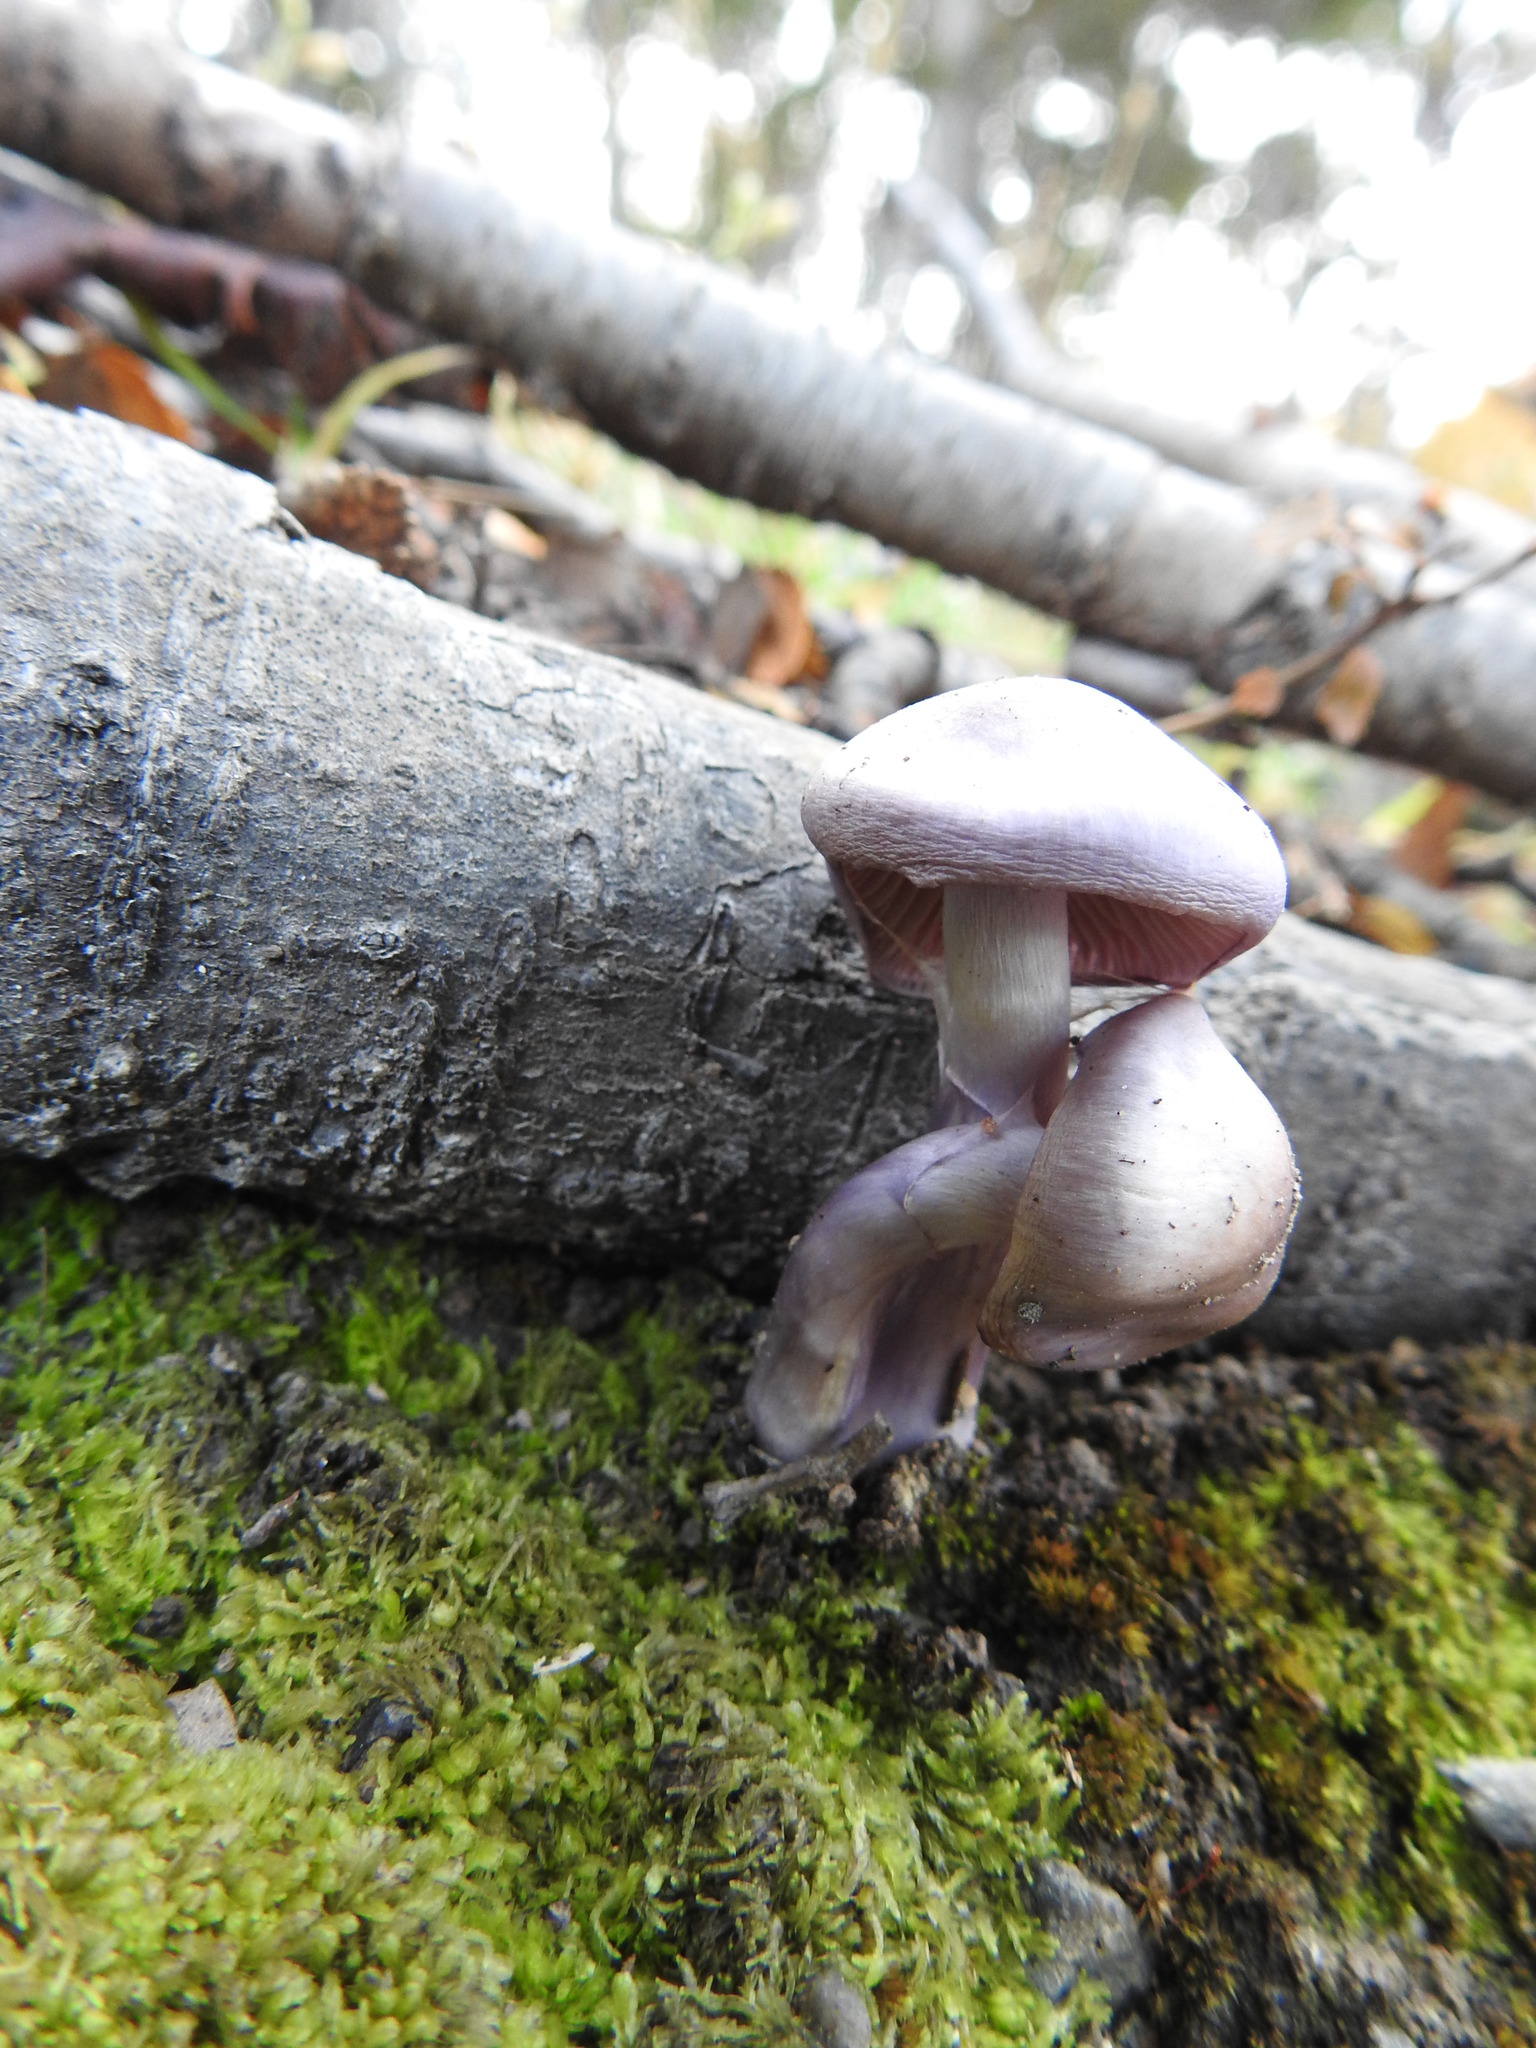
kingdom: Fungi
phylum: Basidiomycota
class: Agaricomycetes
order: Agaricales
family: Cortinariaceae
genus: Cortinarius
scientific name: Cortinarius magellanicus
